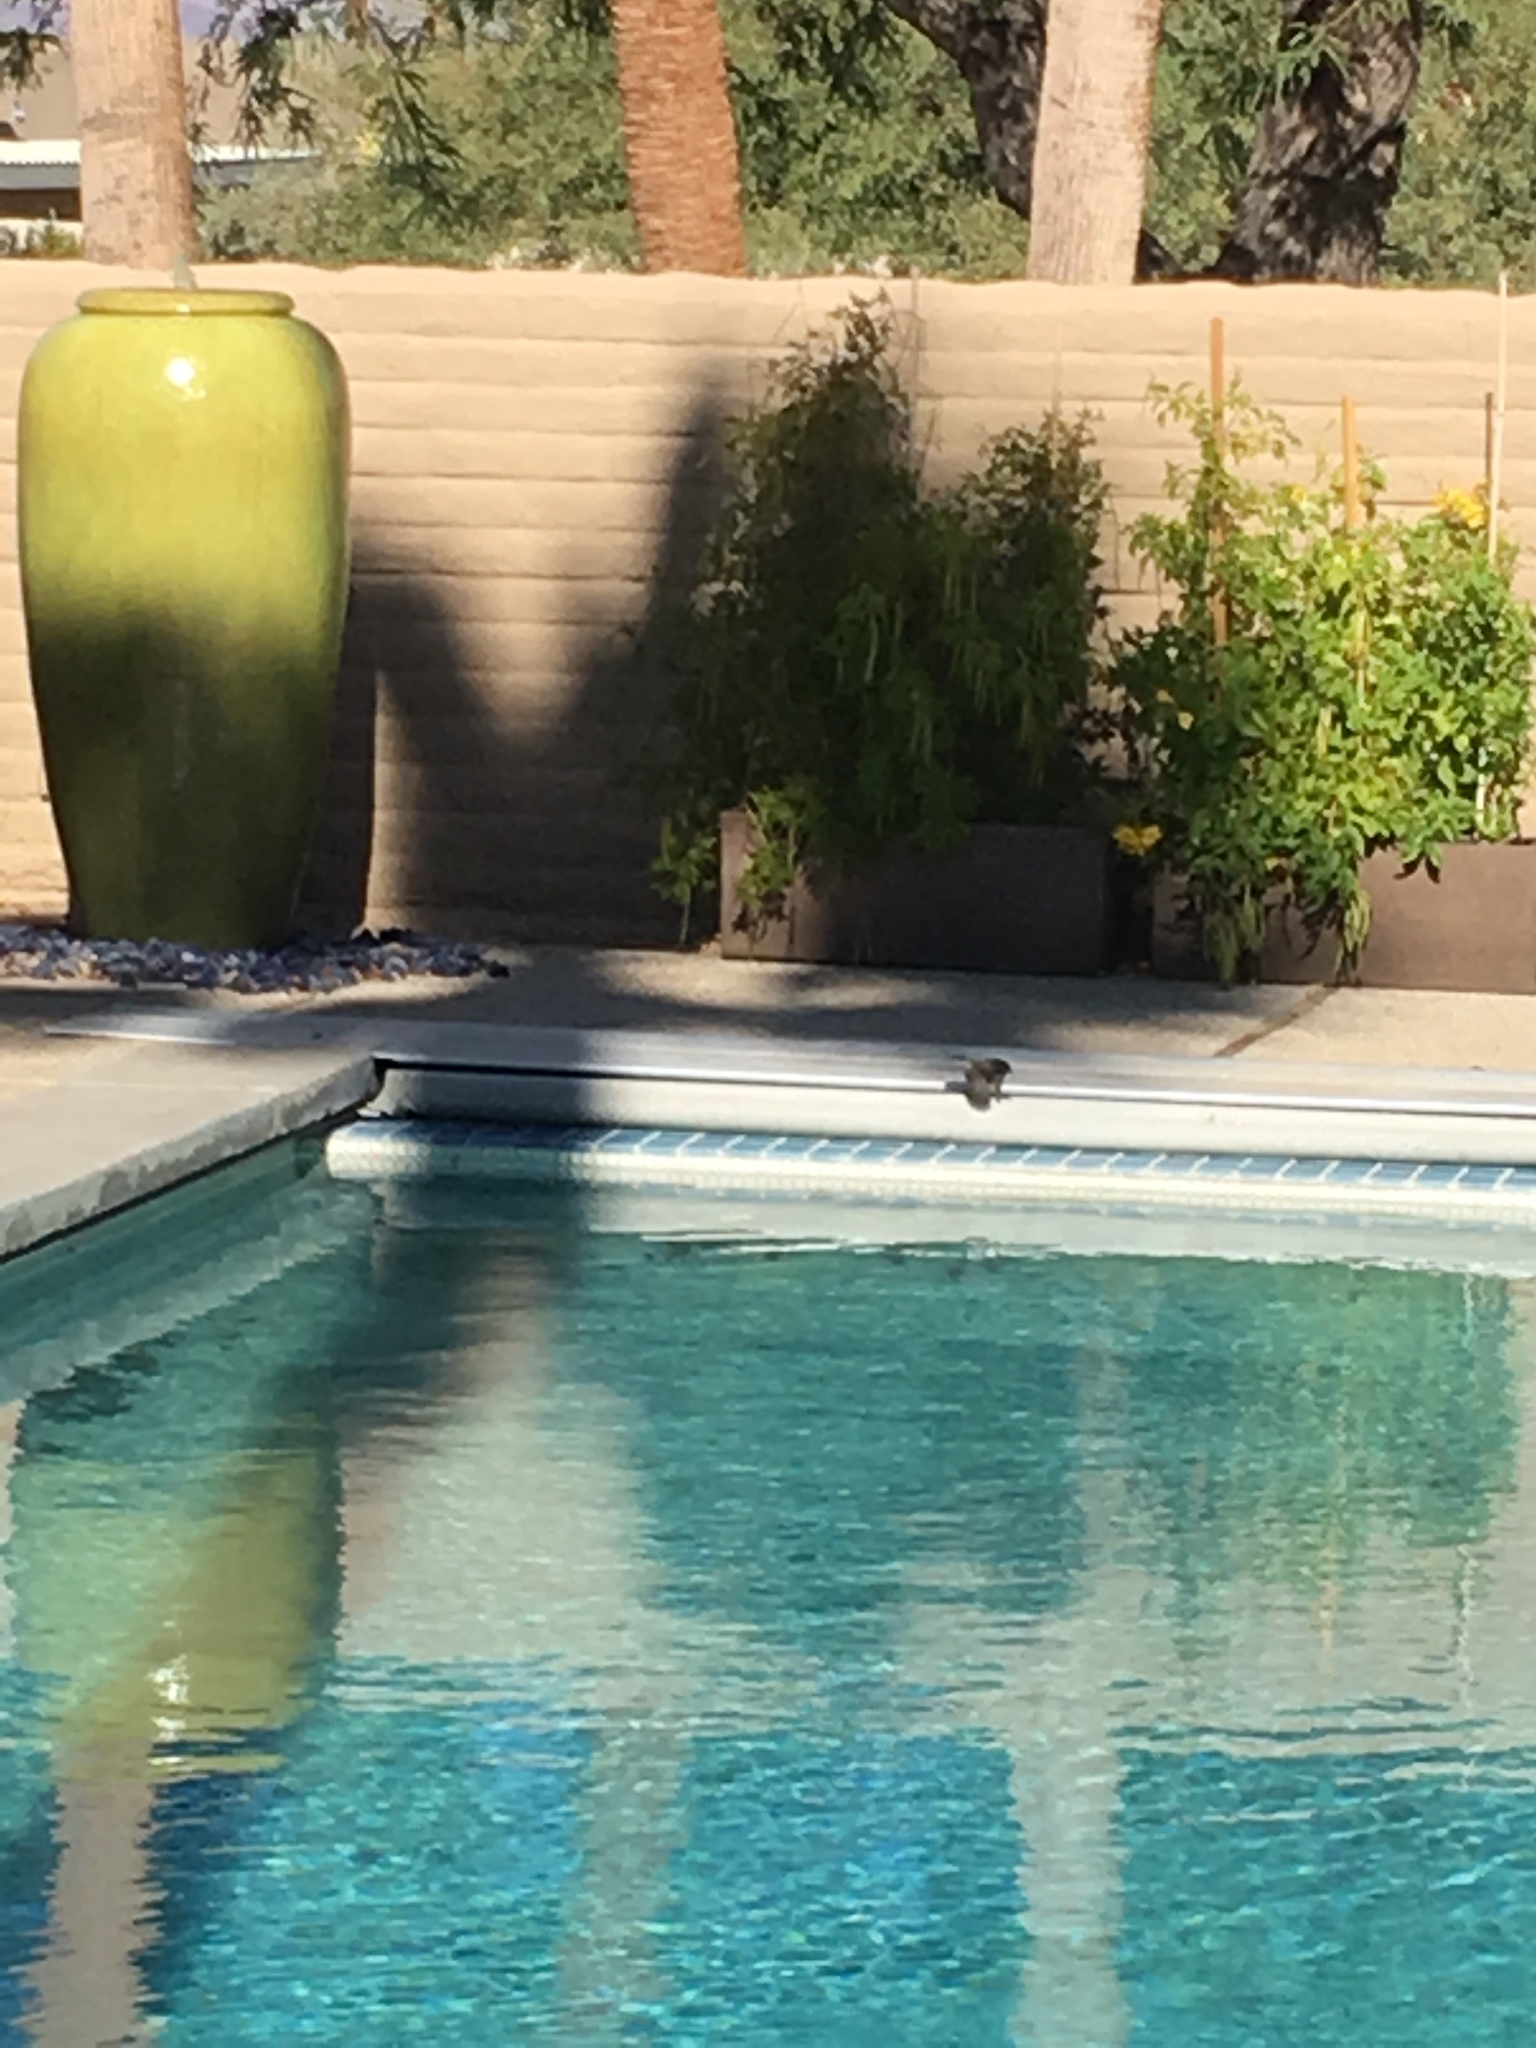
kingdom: Animalia
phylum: Chordata
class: Aves
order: Passeriformes
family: Tyrannidae
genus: Sayornis
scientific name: Sayornis nigricans
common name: Black phoebe
